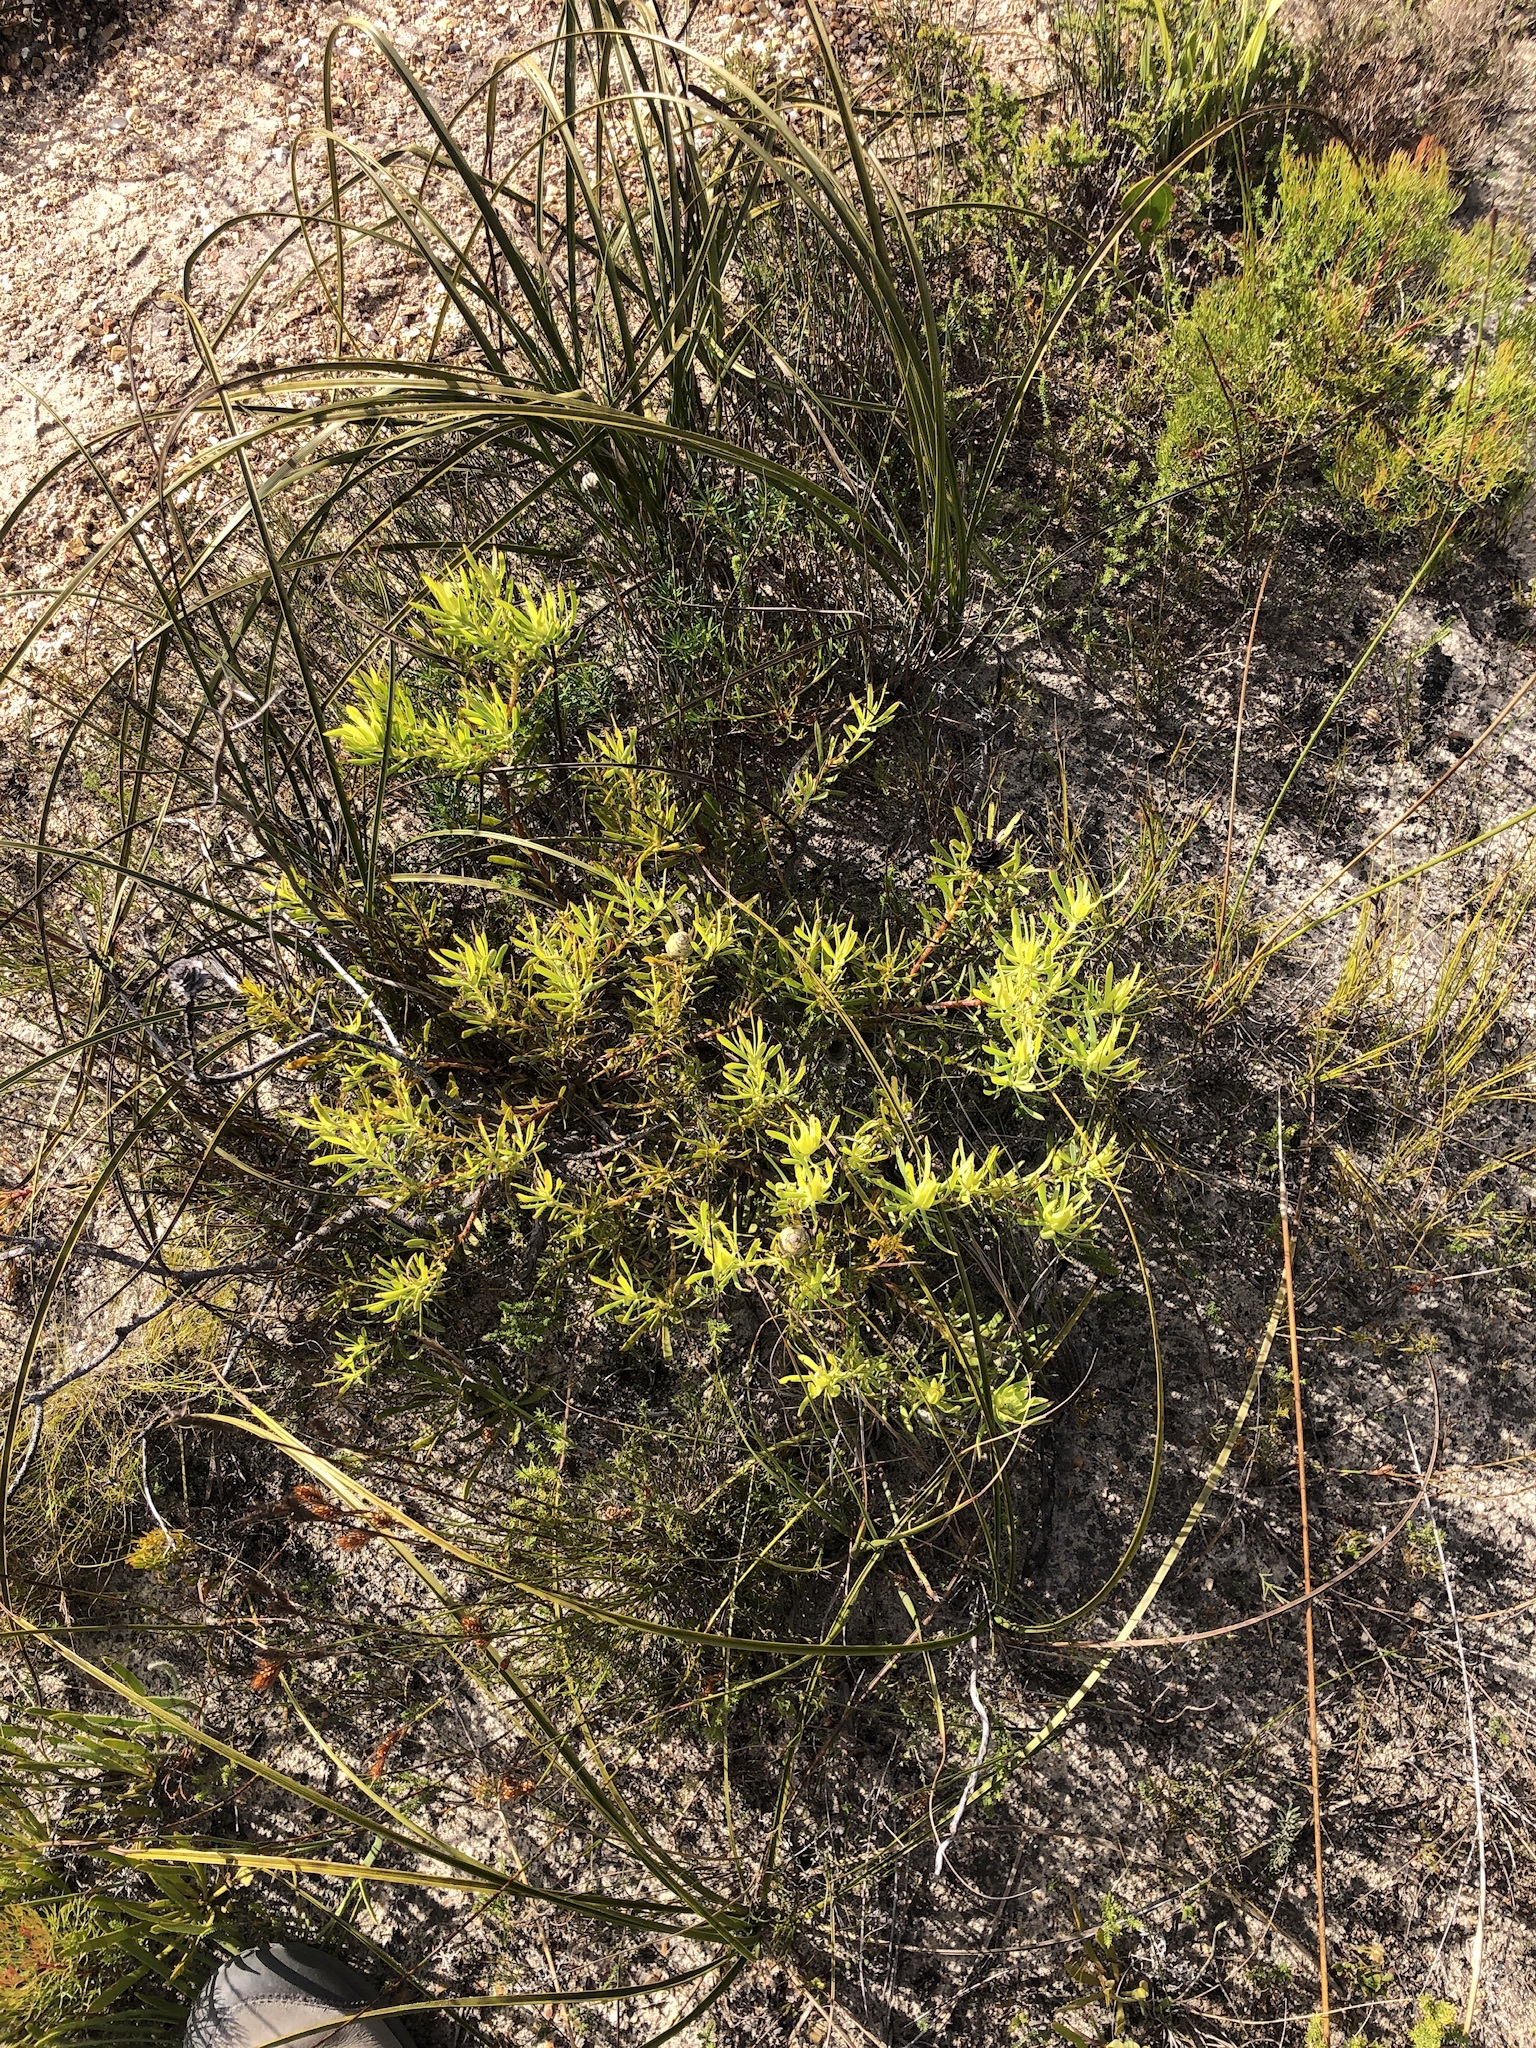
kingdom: Plantae
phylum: Tracheophyta
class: Magnoliopsida
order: Proteales
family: Proteaceae
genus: Leucadendron
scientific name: Leucadendron salignum
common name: Common sunshine conebush
